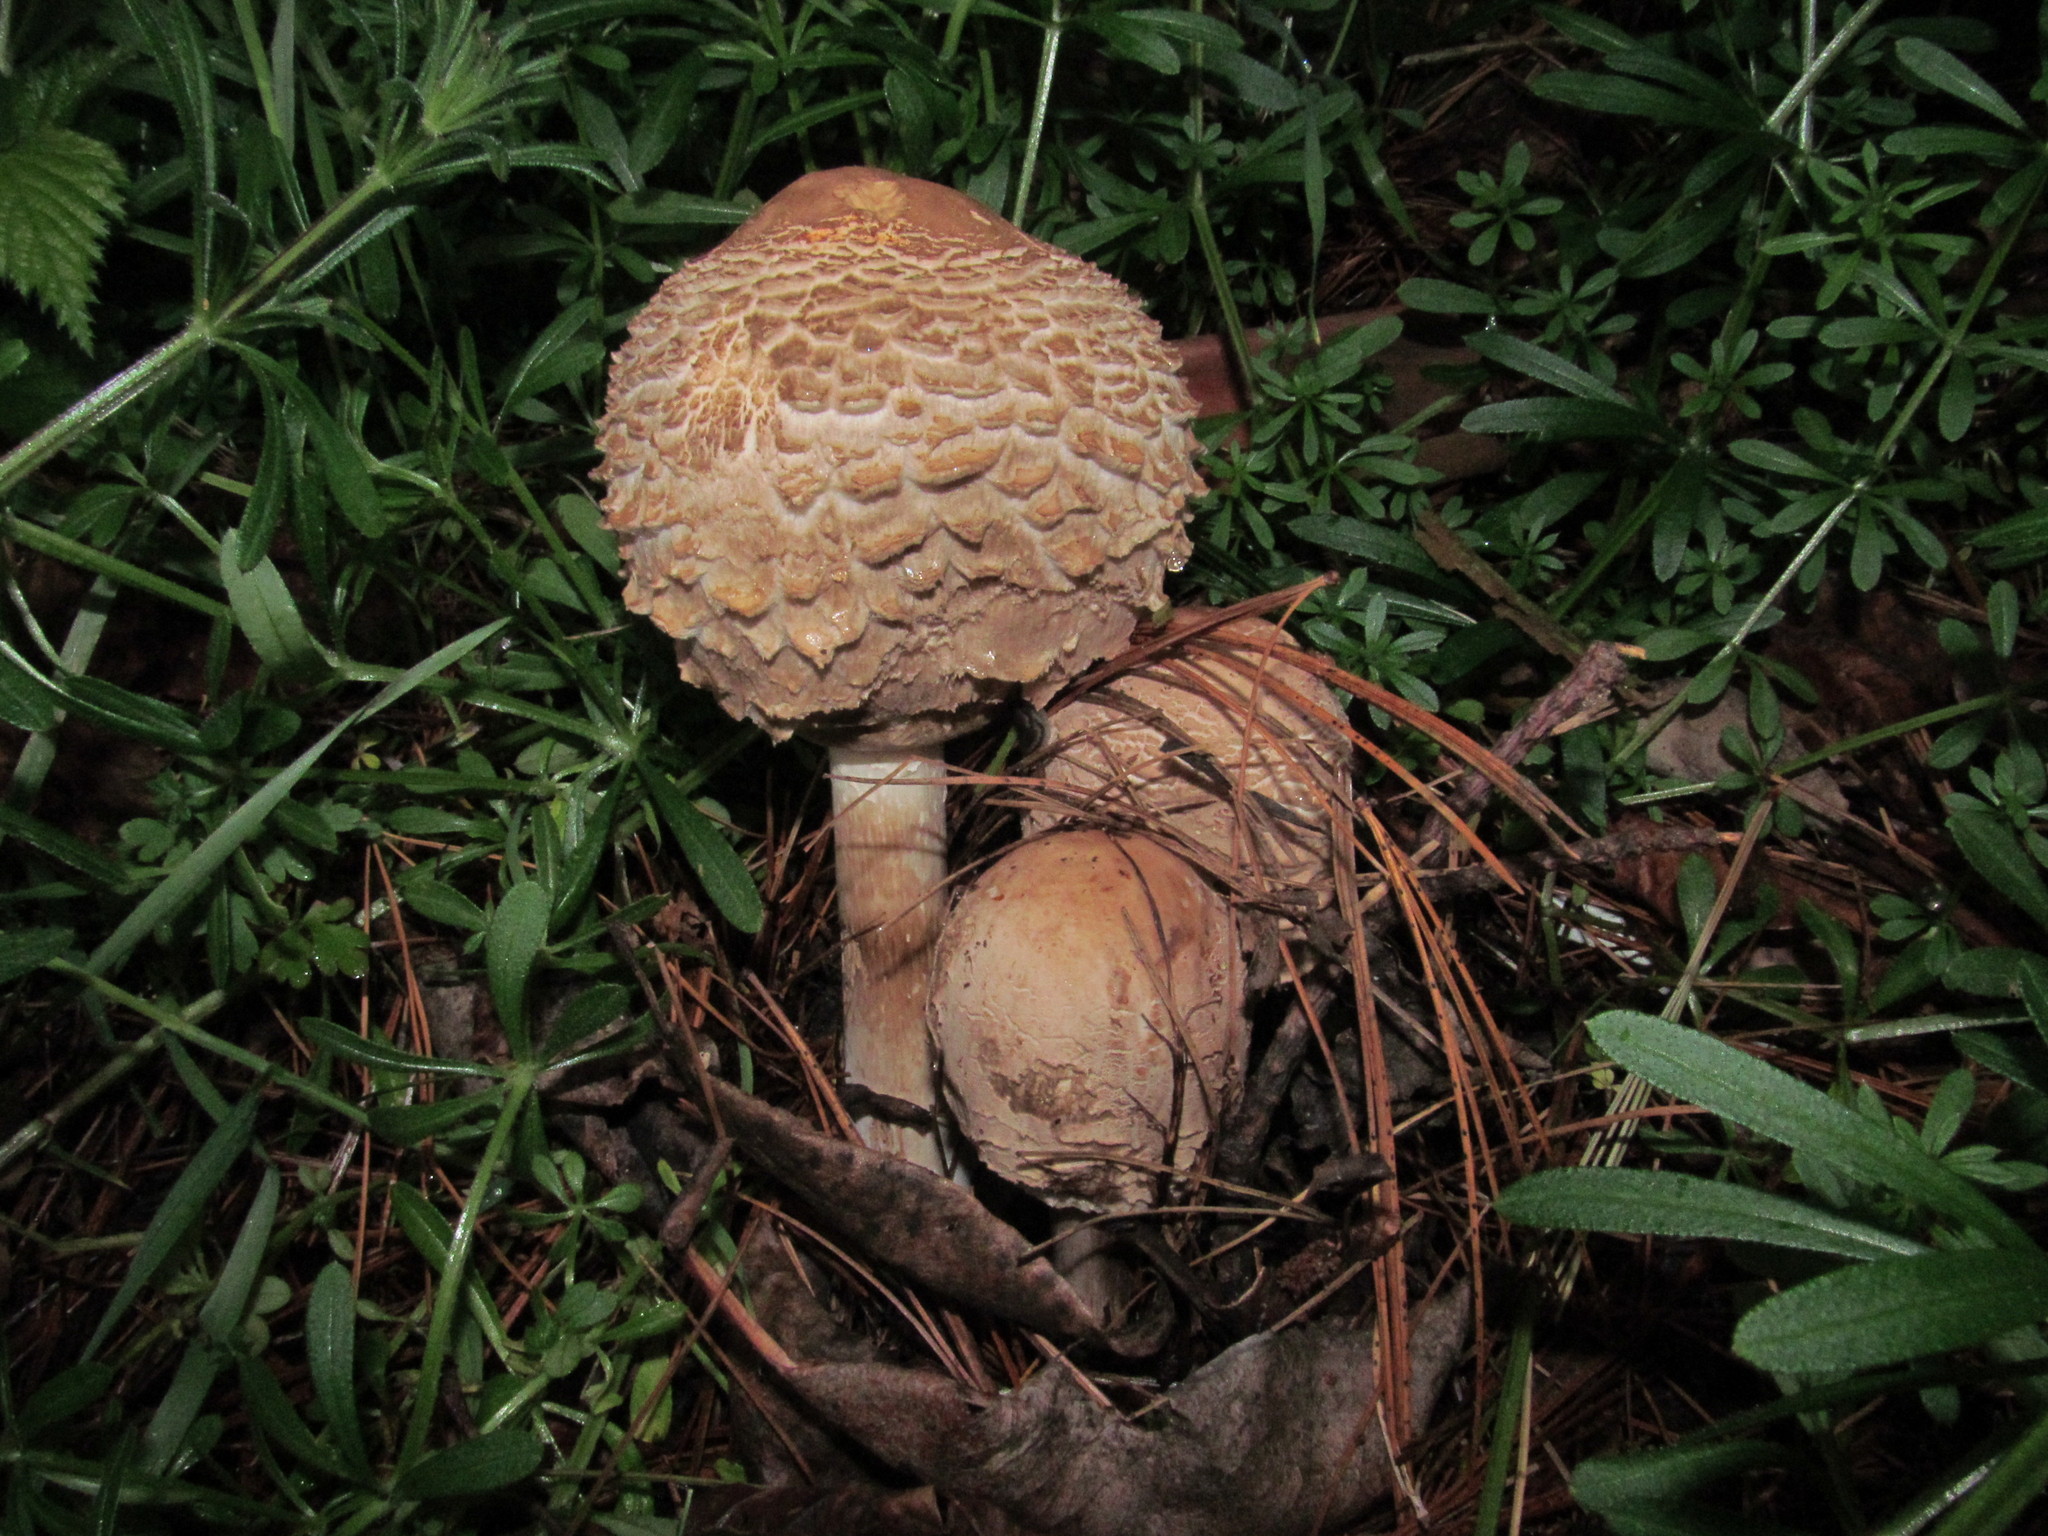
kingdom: Fungi
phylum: Basidiomycota
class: Agaricomycetes
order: Agaricales
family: Agaricaceae
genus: Chlorophyllum
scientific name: Chlorophyllum olivieri
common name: Conifer parasol
